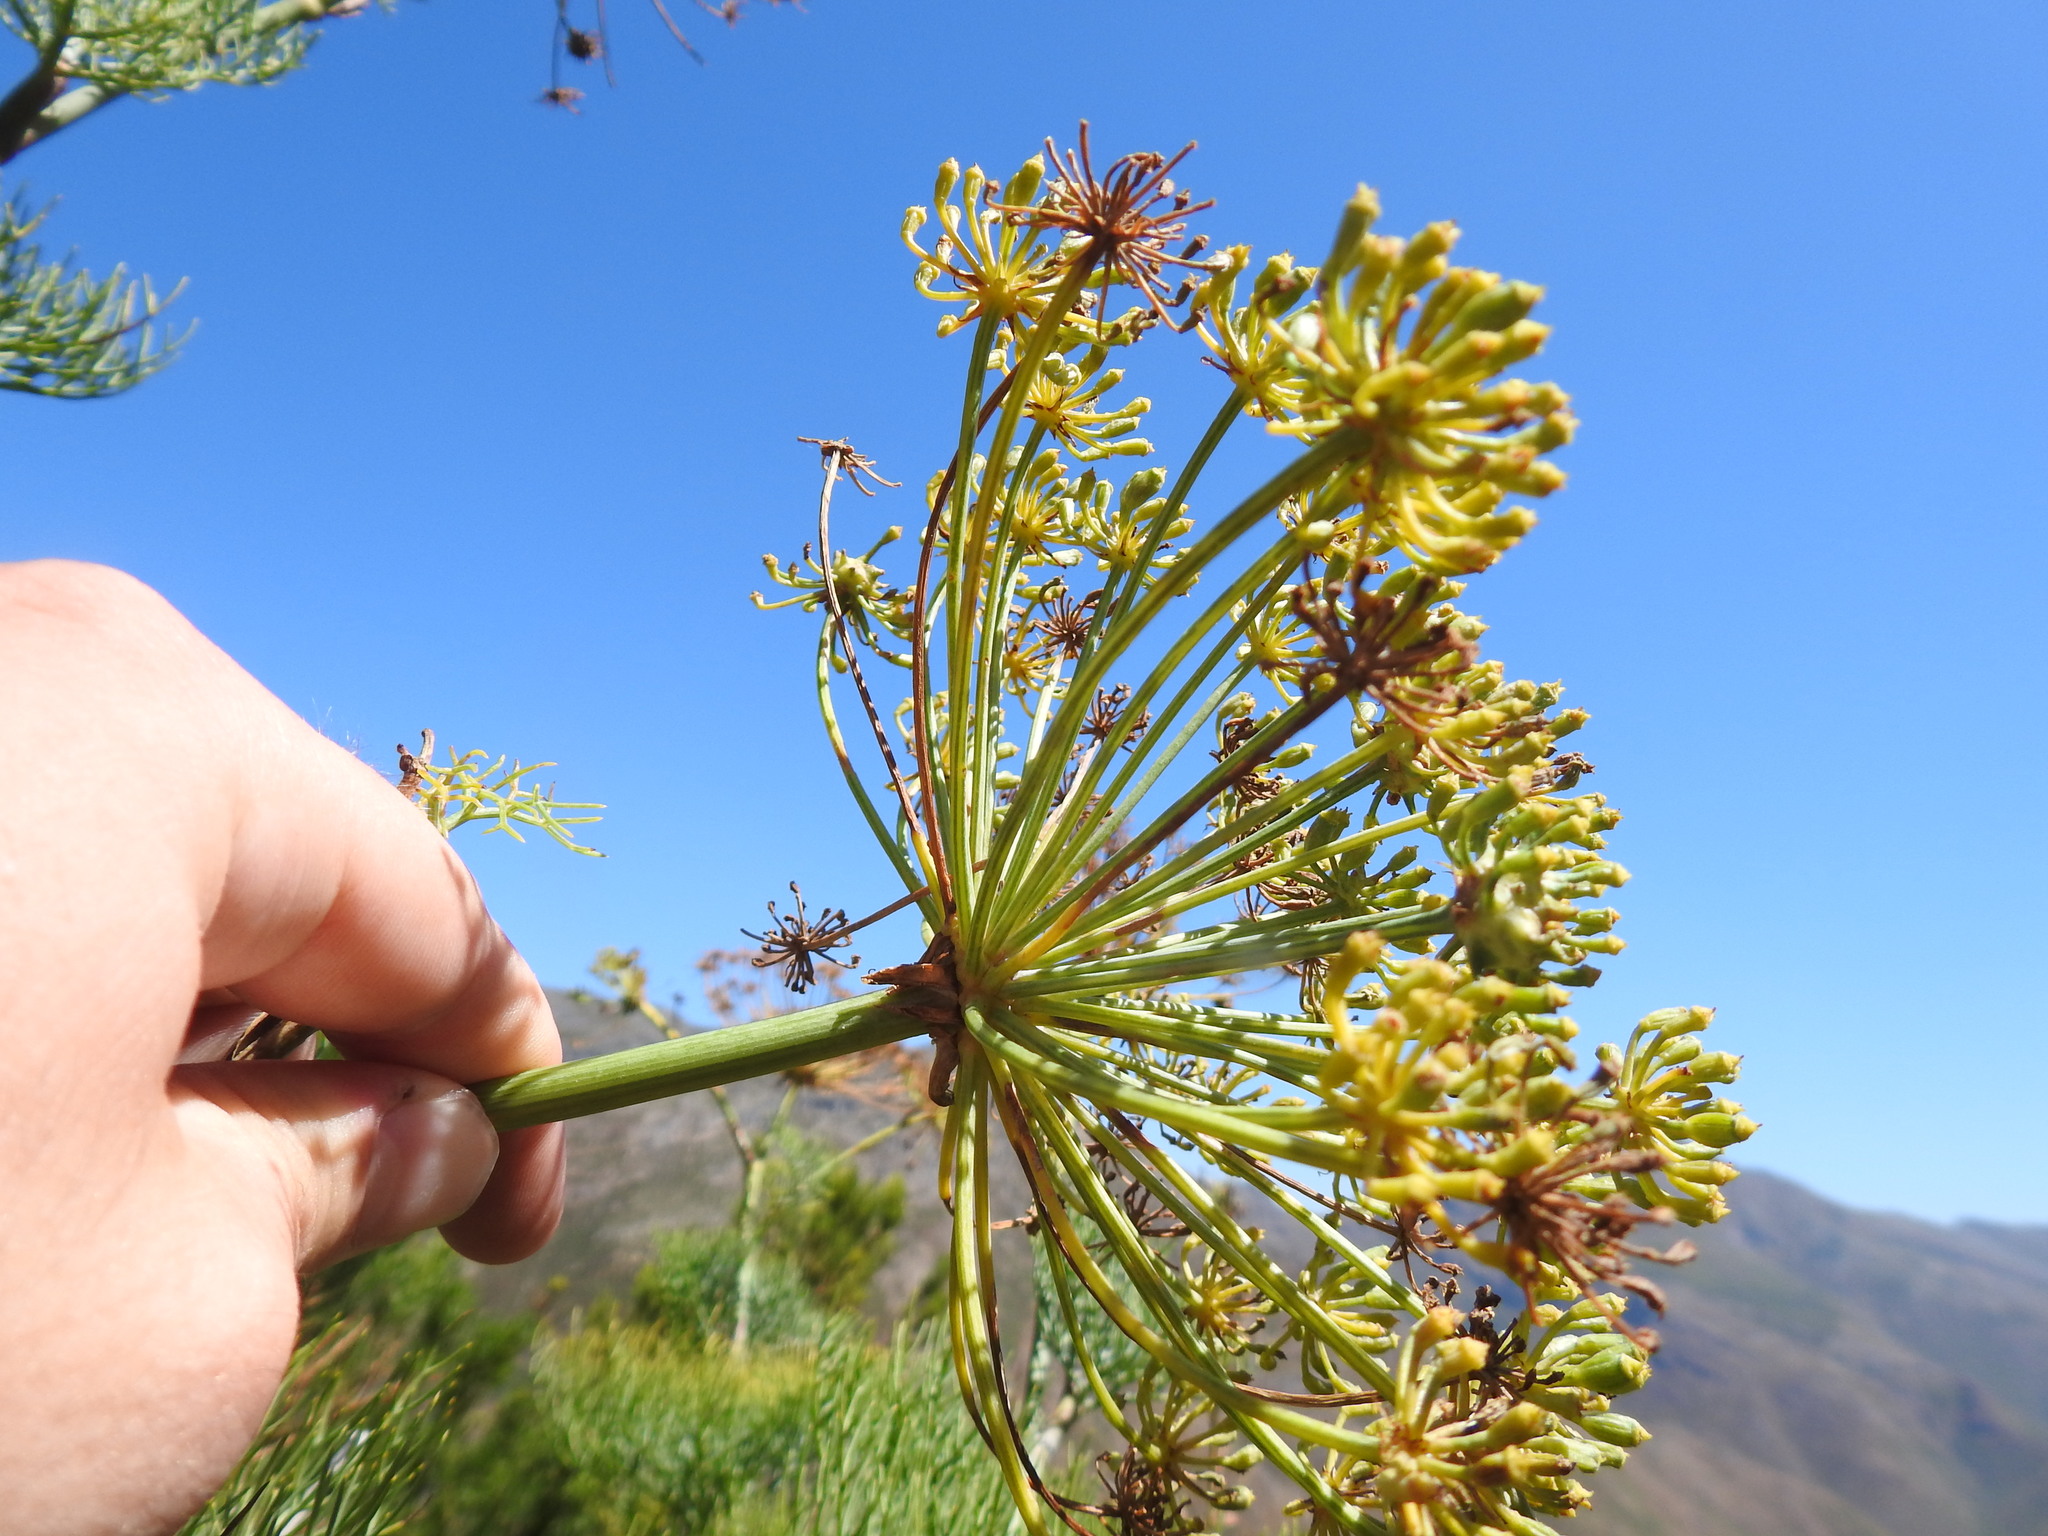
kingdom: Plantae
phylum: Tracheophyta
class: Magnoliopsida
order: Apiales
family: Apiaceae
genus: Notobubon
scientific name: Notobubon capense
